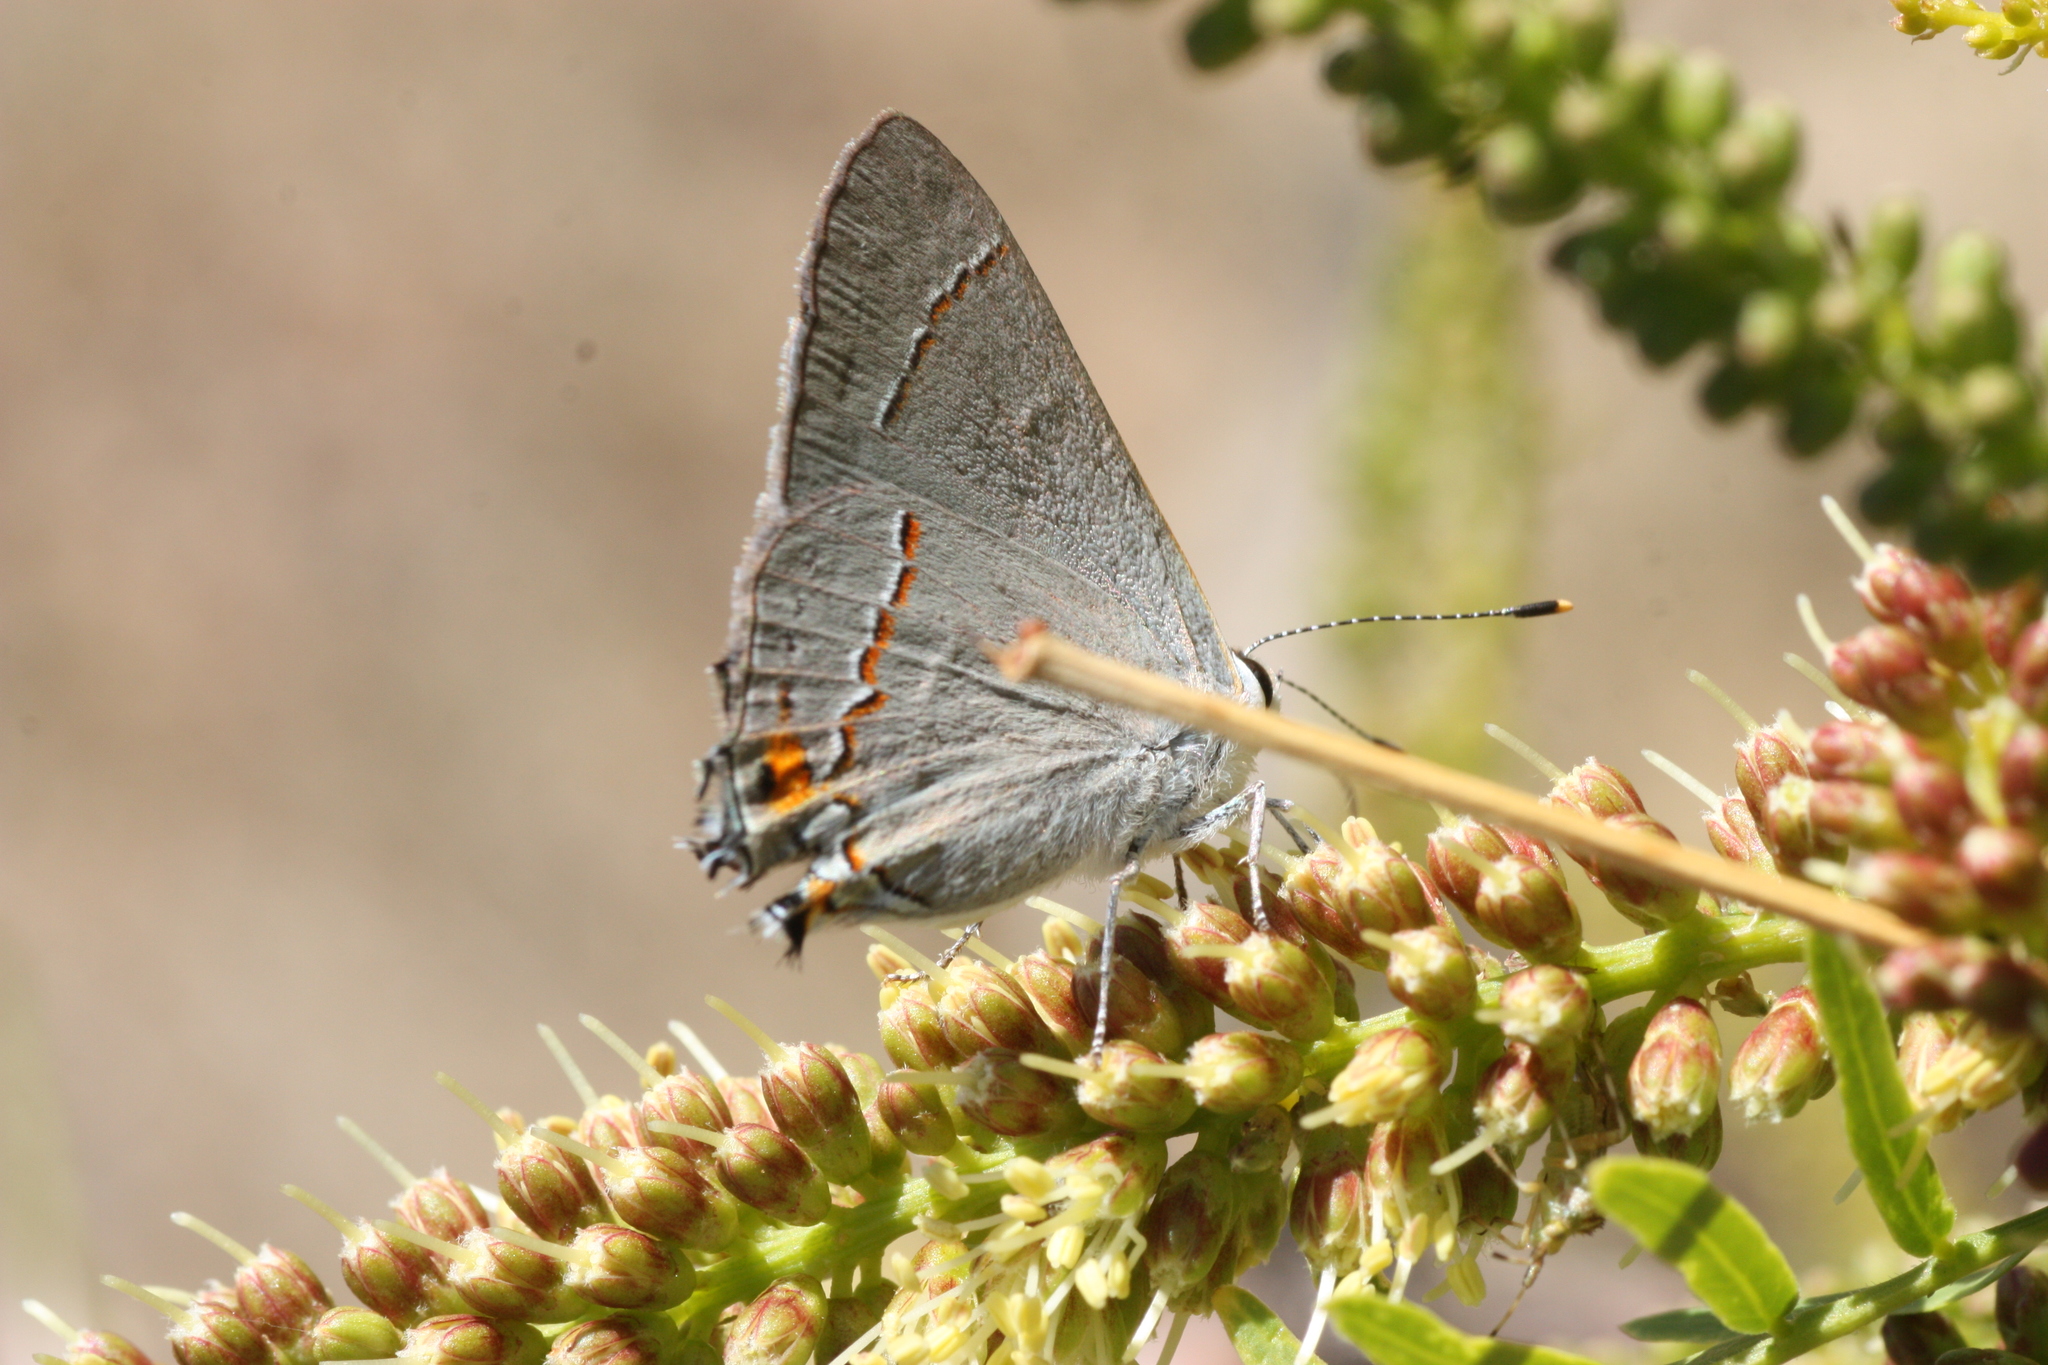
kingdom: Animalia
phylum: Arthropoda
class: Insecta
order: Lepidoptera
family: Lycaenidae
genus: Strymon
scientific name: Strymon melinus
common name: Gray hairstreak
